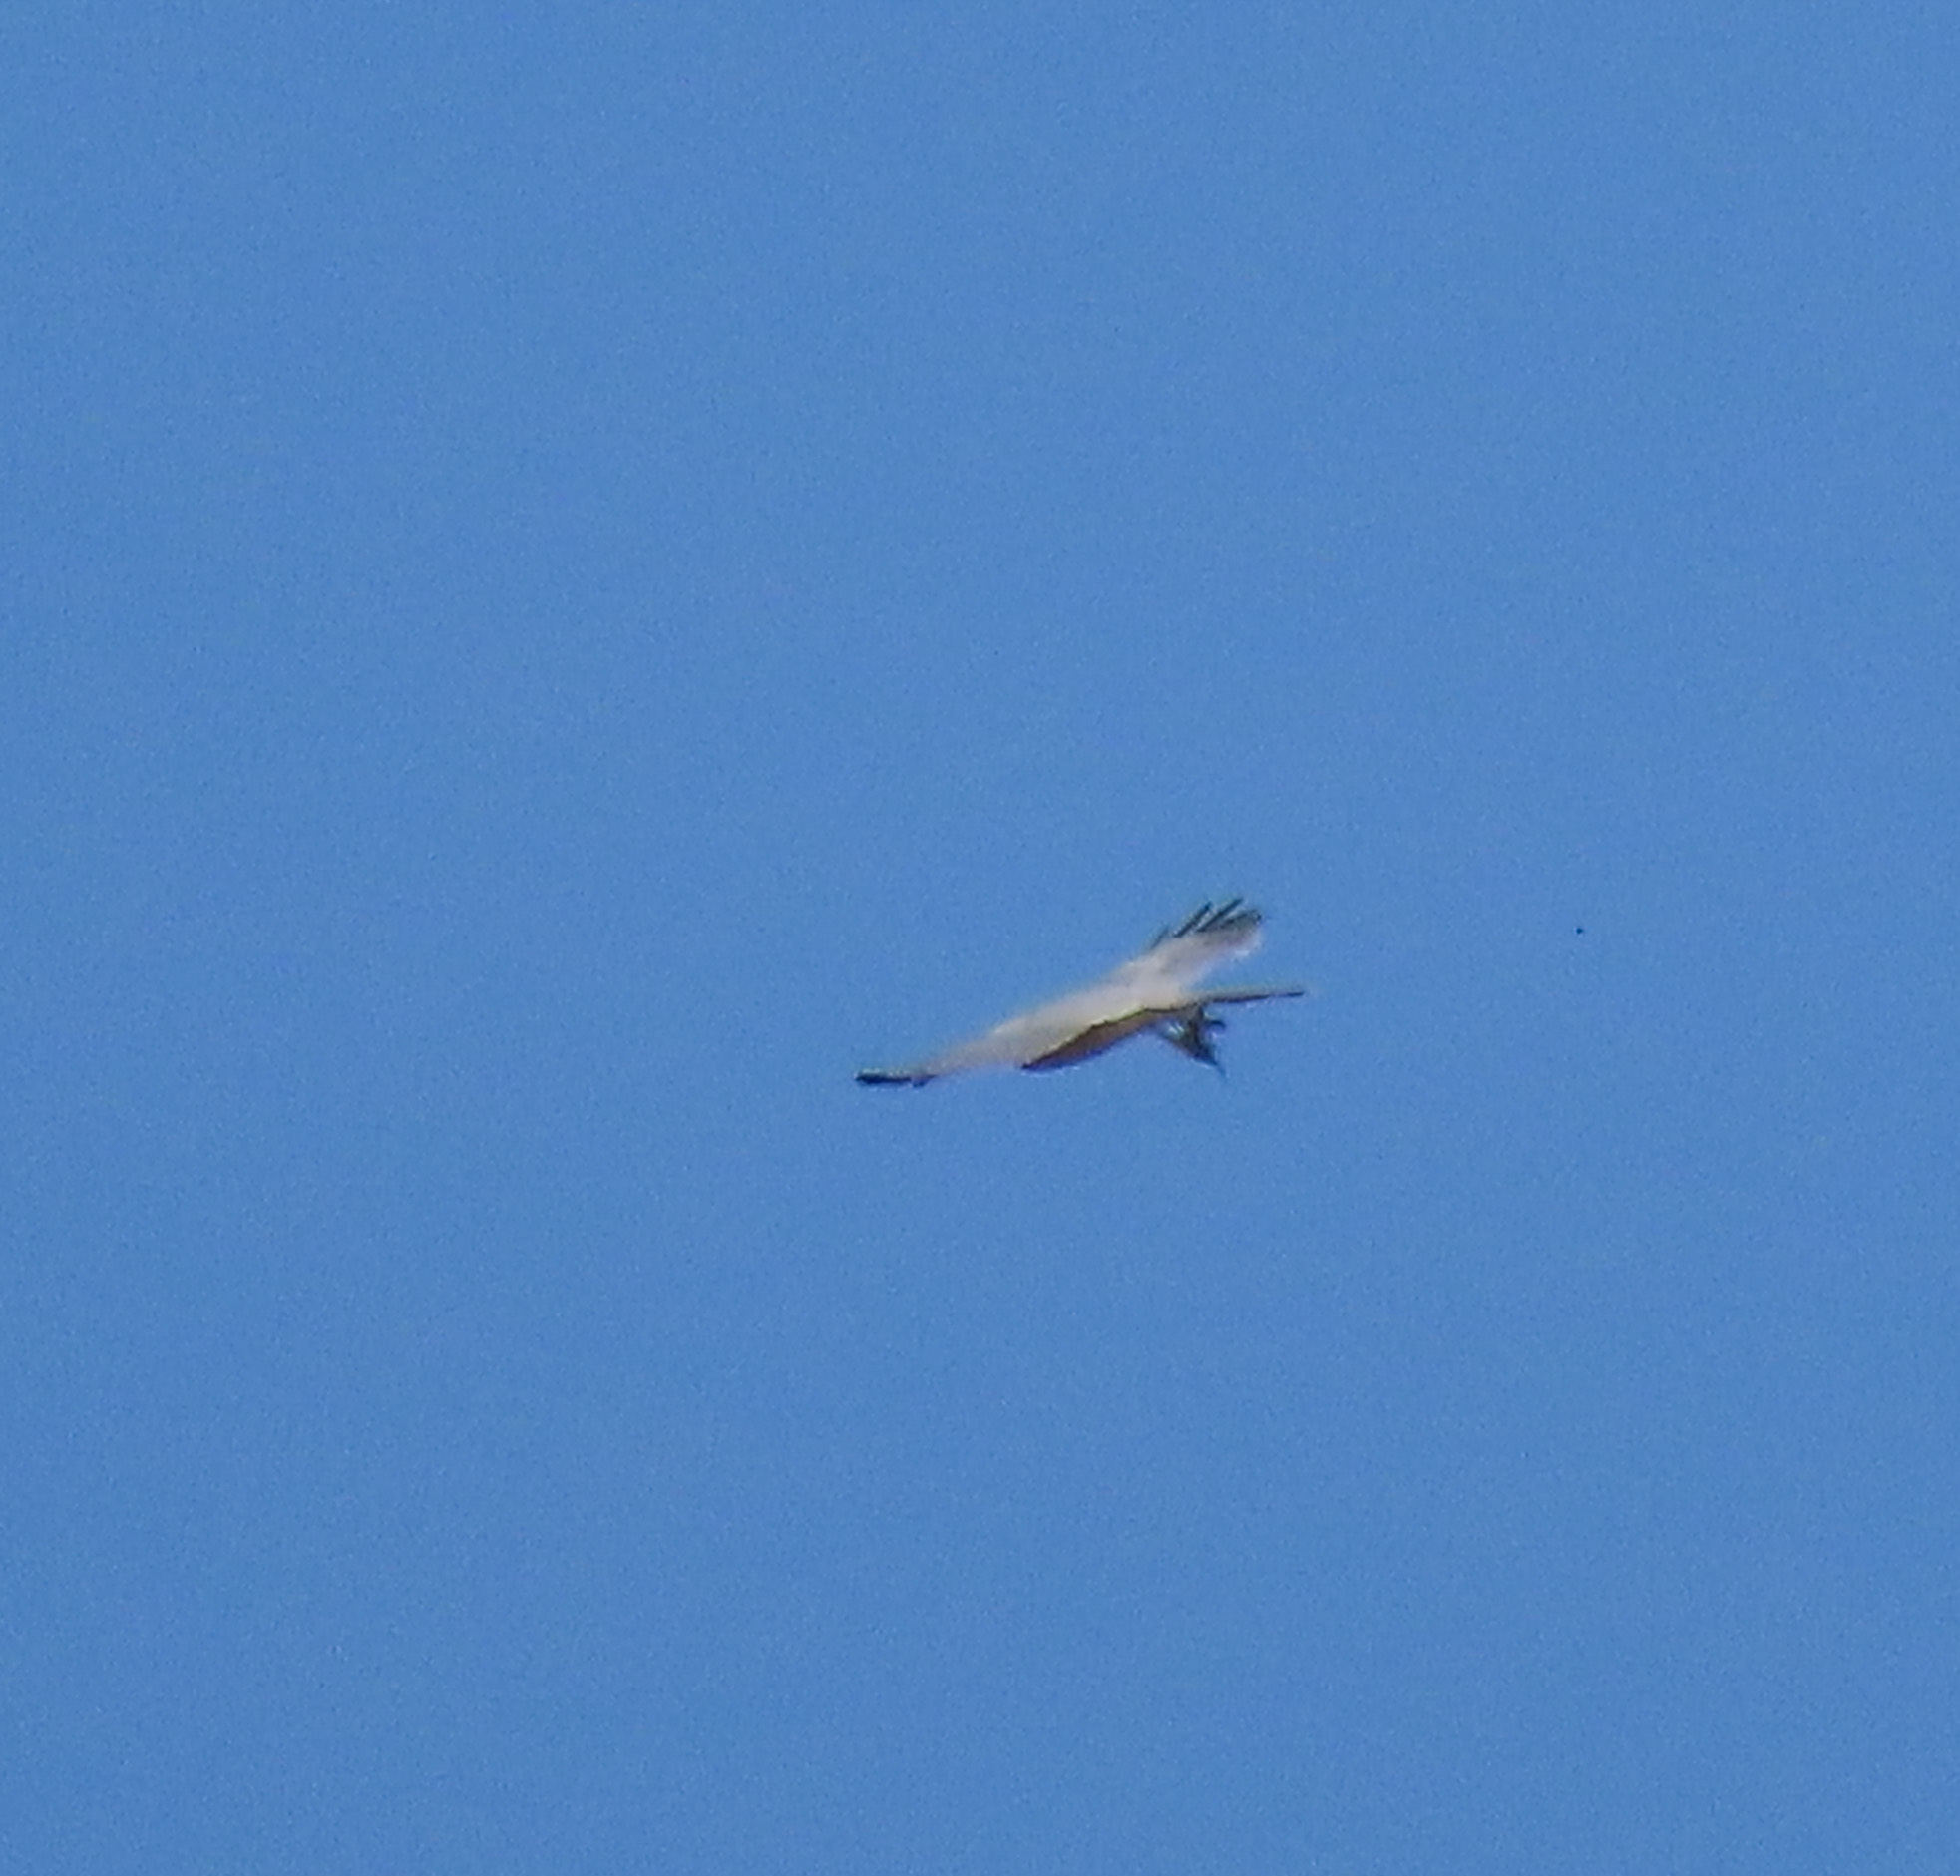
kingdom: Animalia
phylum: Chordata
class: Aves
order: Accipitriformes
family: Accipitridae
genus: Accipiter
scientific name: Accipiter badius
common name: Shikra
